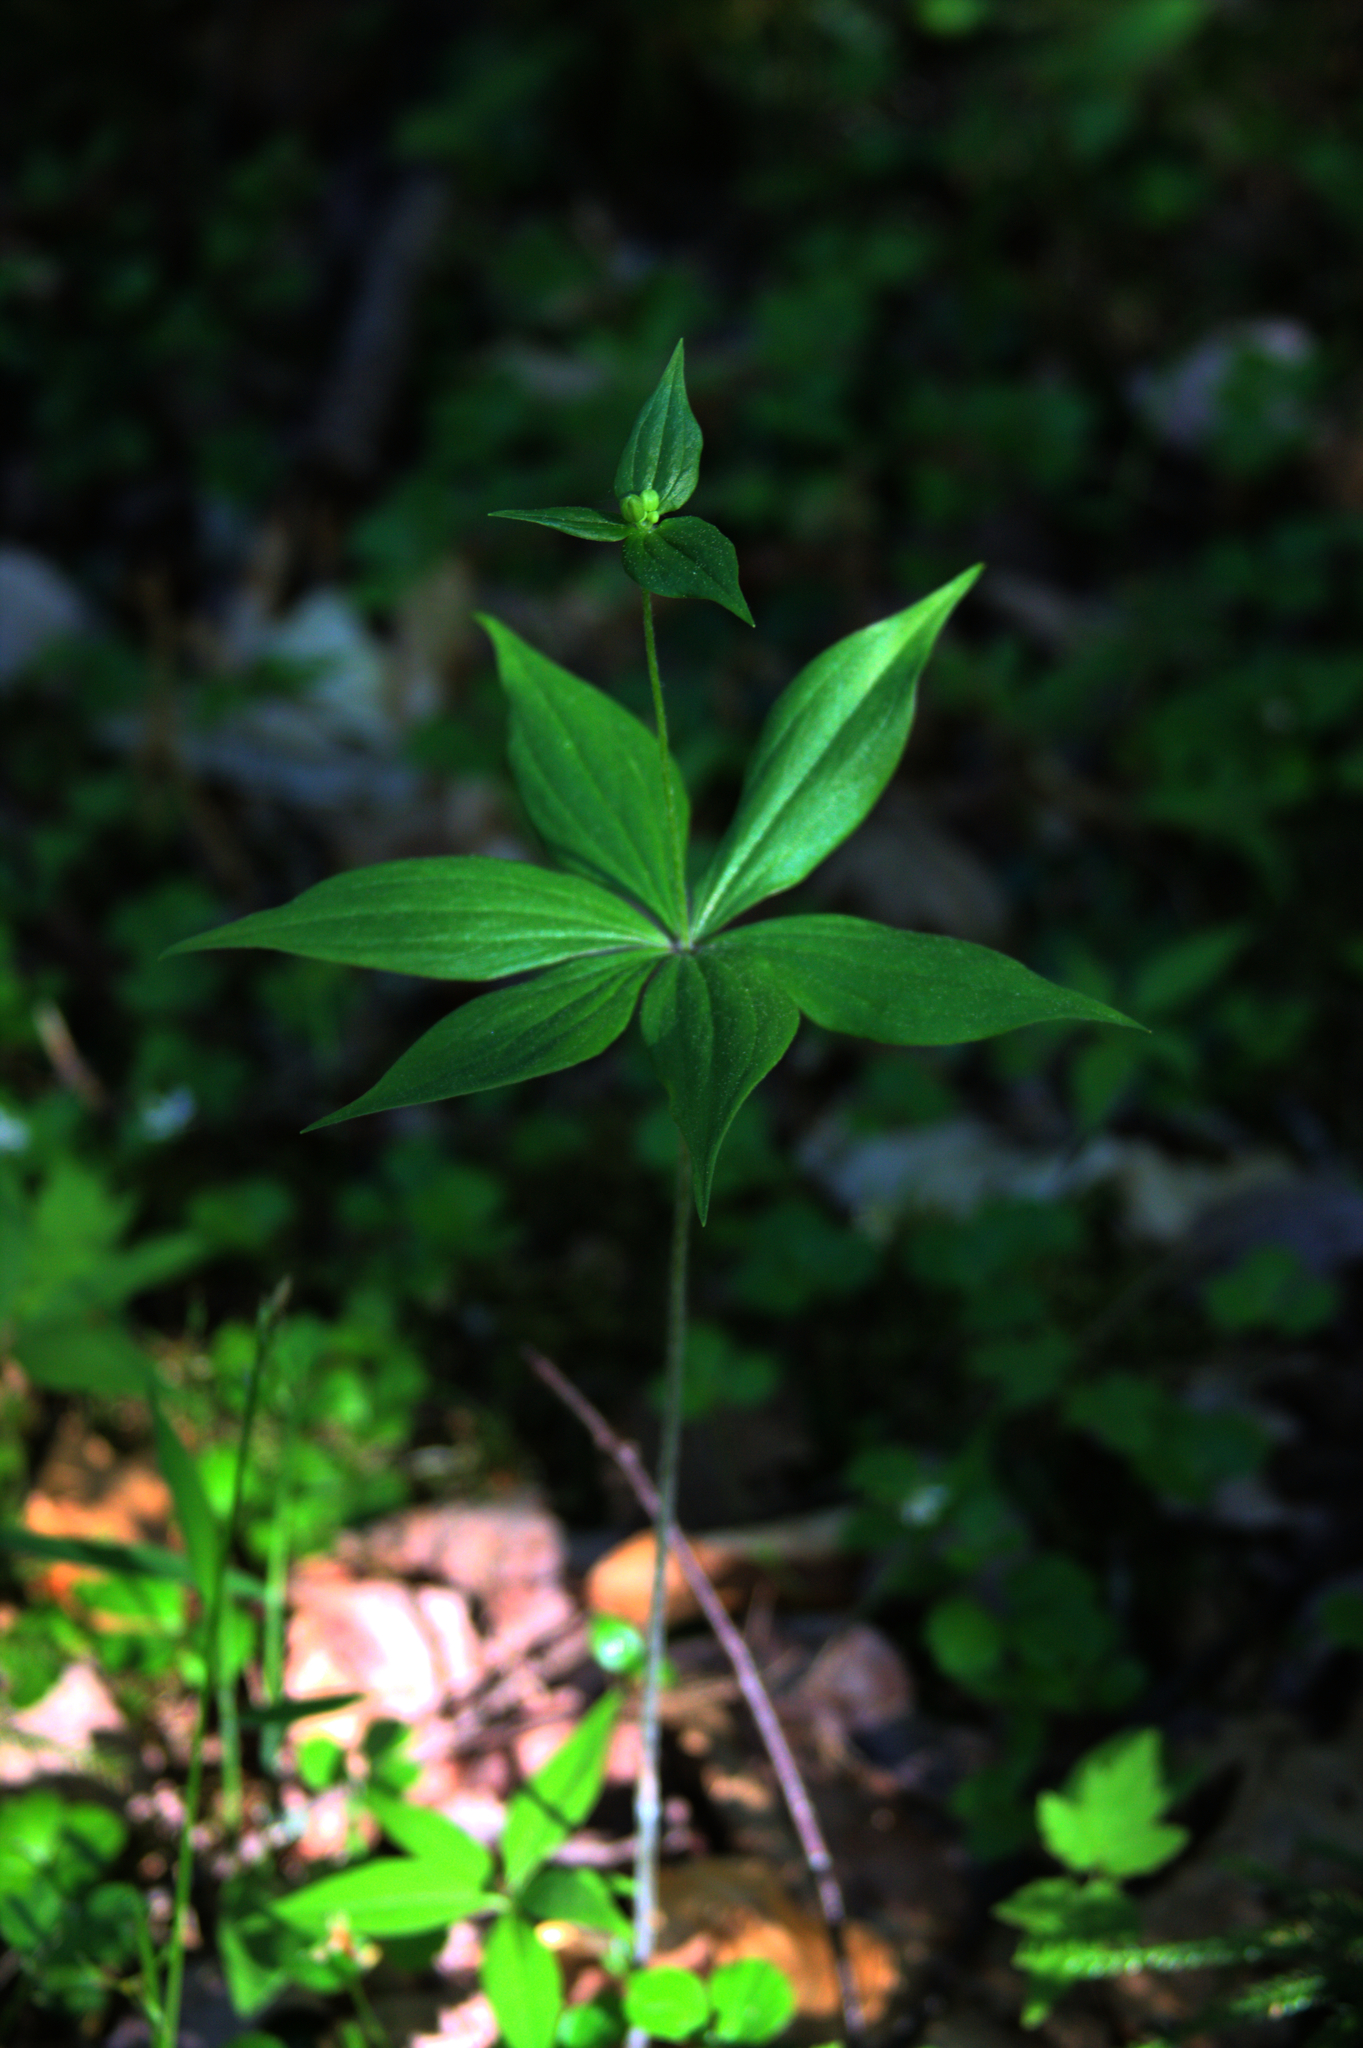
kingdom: Plantae
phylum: Tracheophyta
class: Liliopsida
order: Liliales
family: Liliaceae
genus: Medeola
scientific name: Medeola virginiana
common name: Indian cucumber-root
